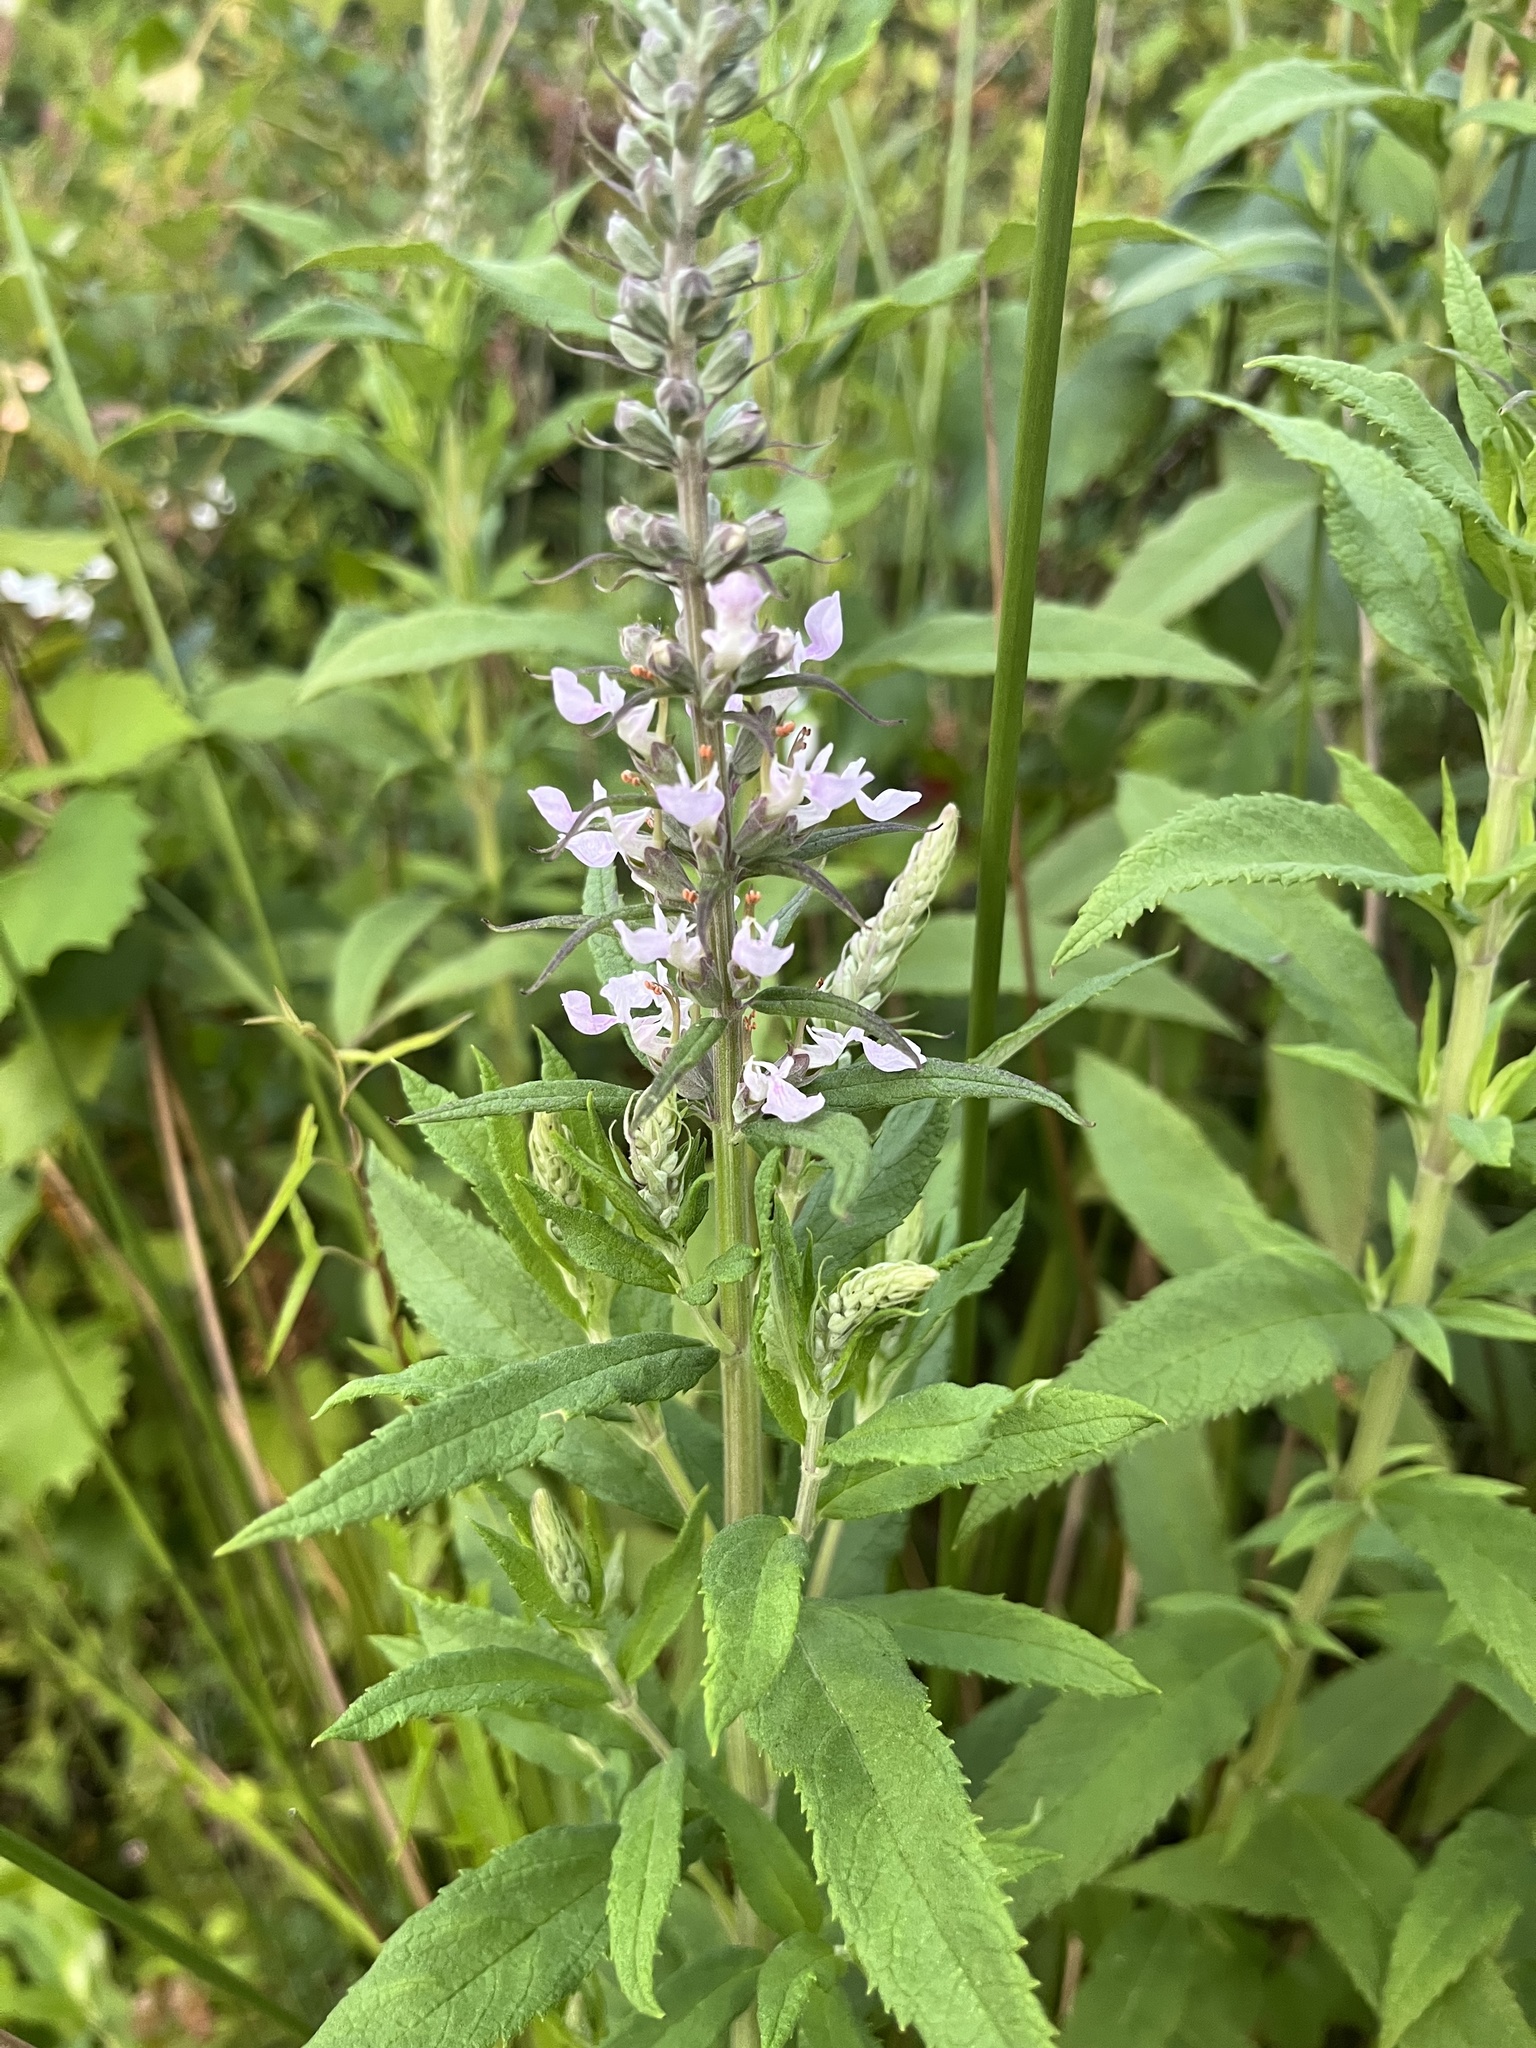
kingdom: Plantae
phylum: Tracheophyta
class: Magnoliopsida
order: Lamiales
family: Lamiaceae
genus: Teucrium
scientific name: Teucrium canadense
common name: American germander
